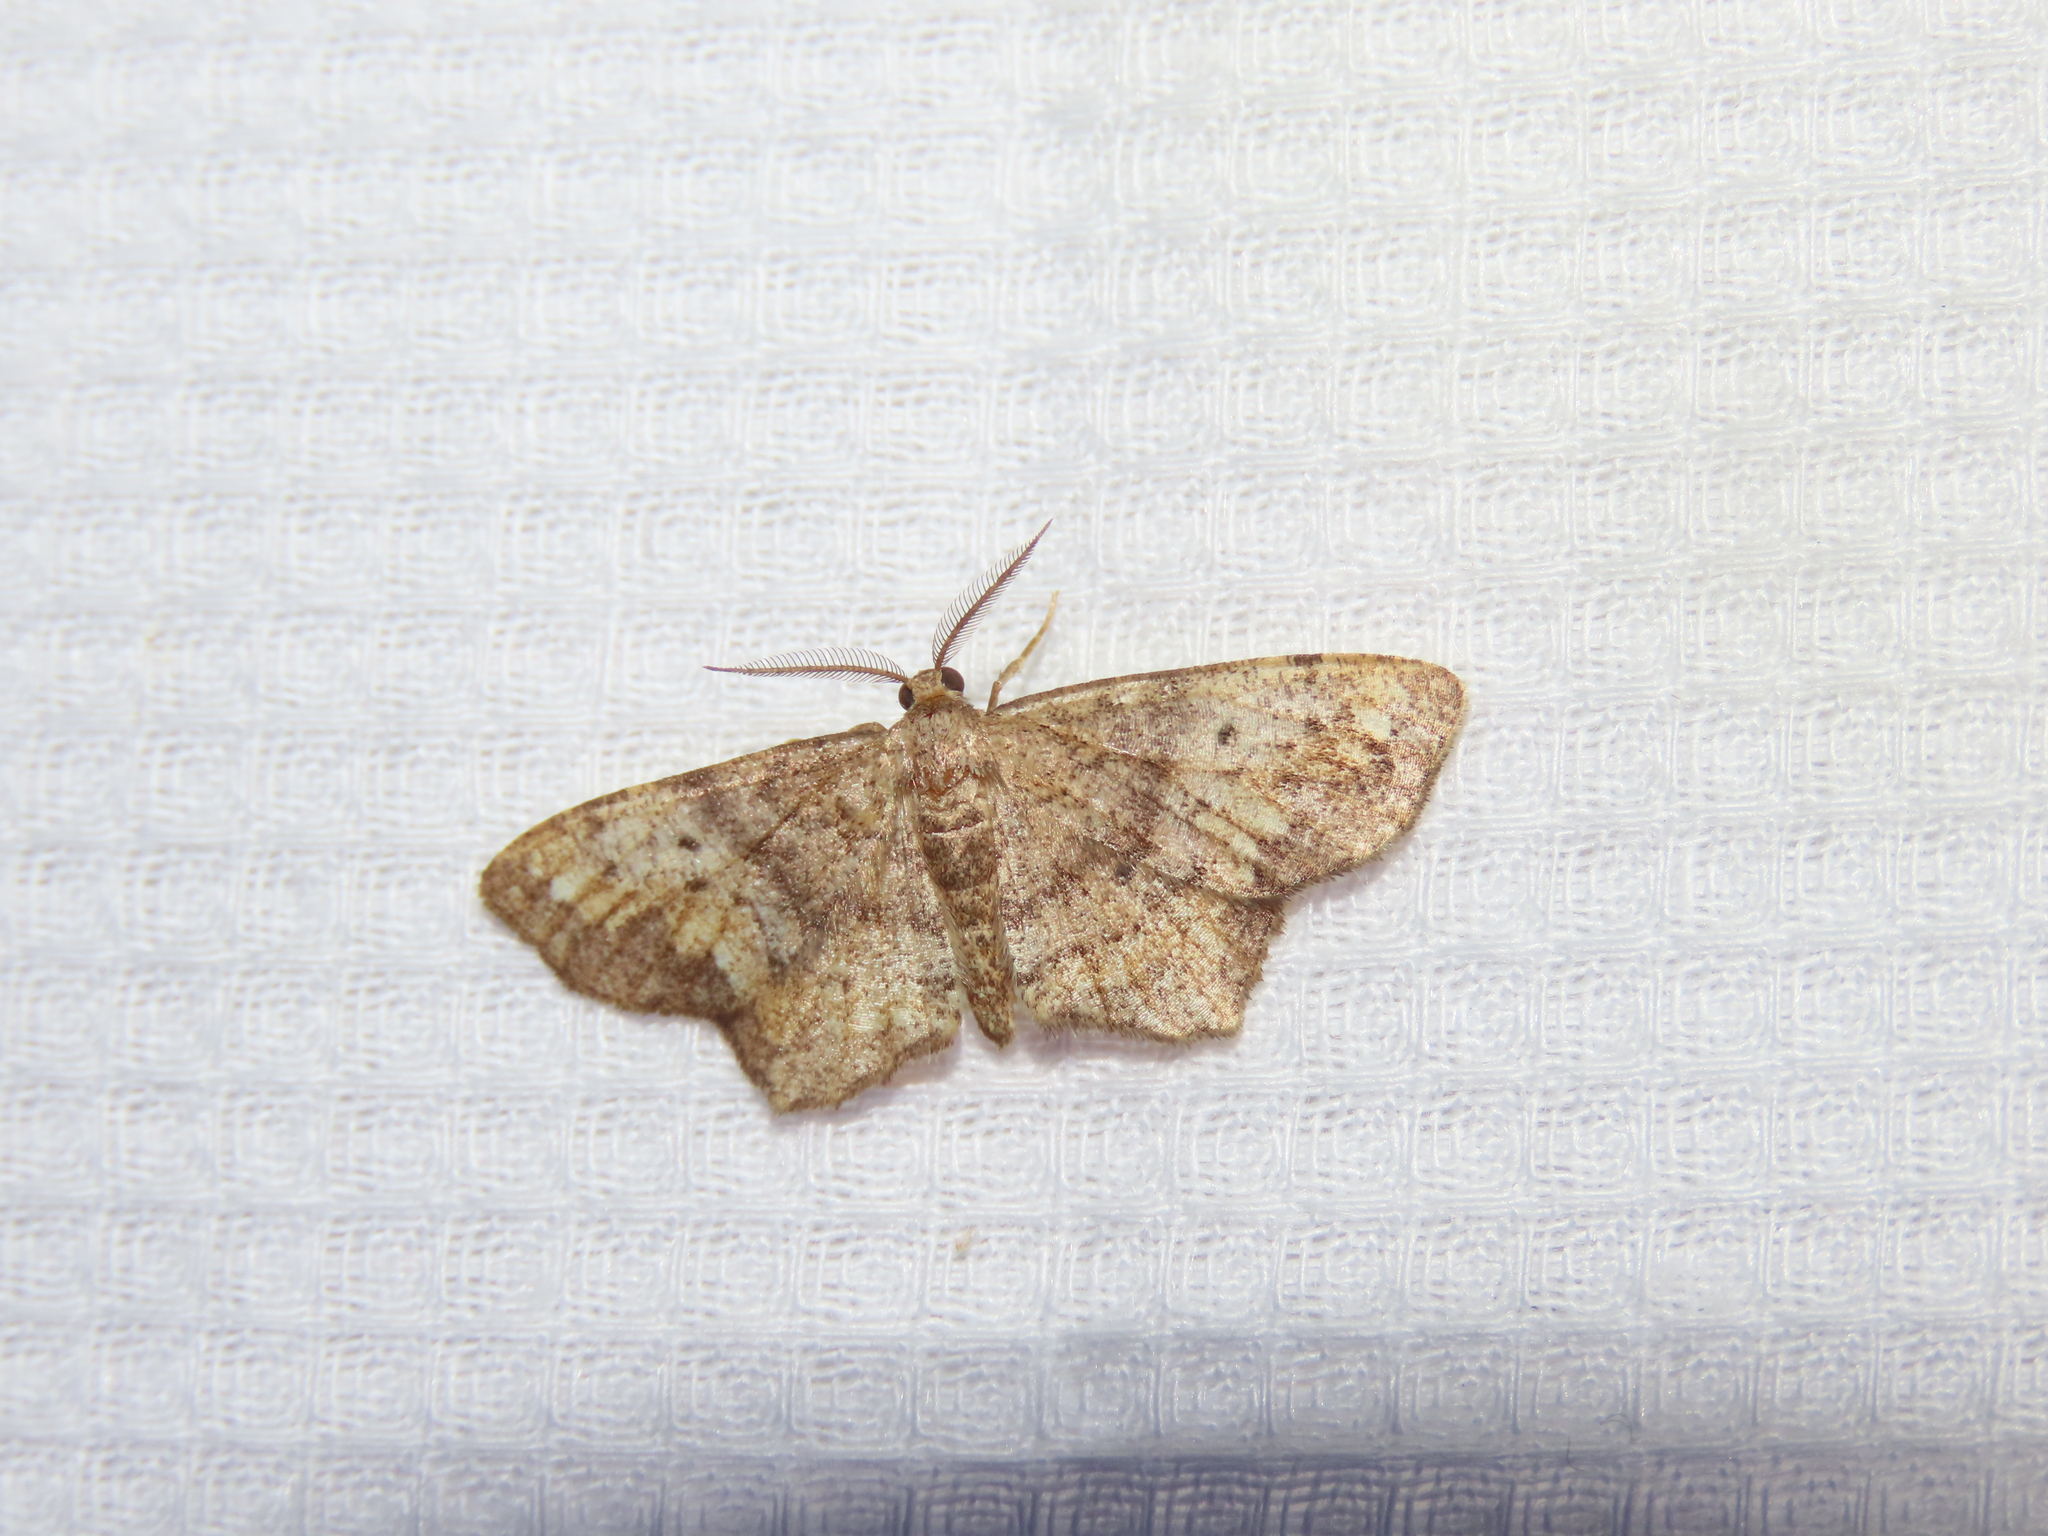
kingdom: Animalia
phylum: Arthropoda
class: Insecta
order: Lepidoptera
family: Geometridae
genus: Hypagyrtis
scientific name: Hypagyrtis unipunctata
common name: One-spotted variant
